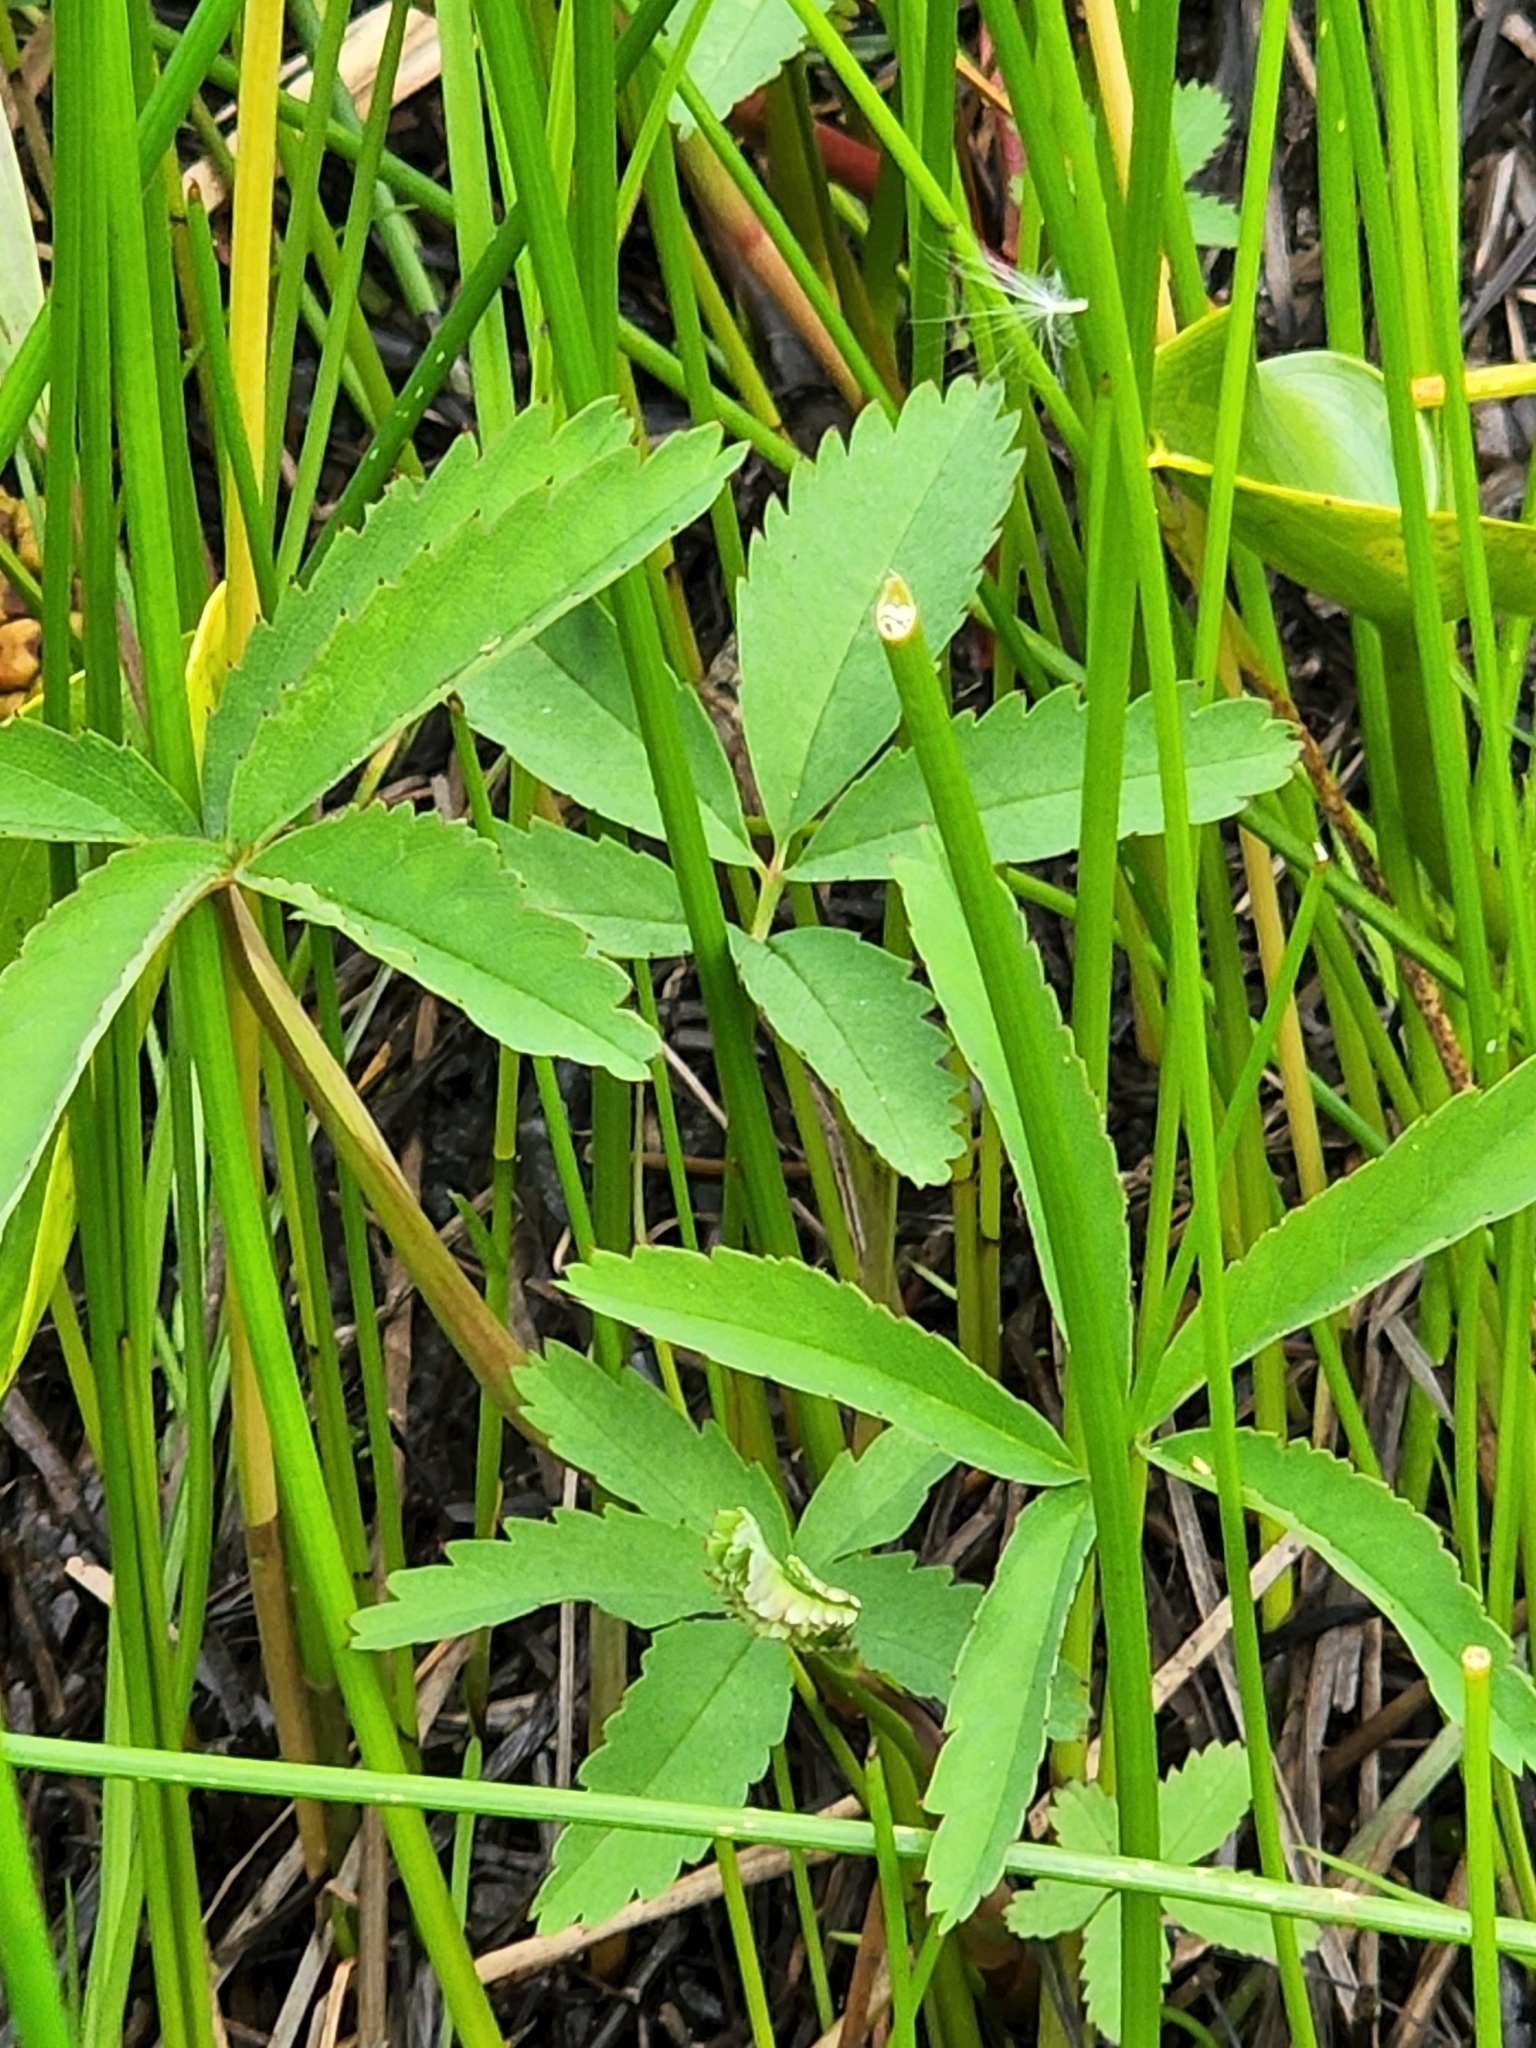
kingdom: Plantae
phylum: Tracheophyta
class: Magnoliopsida
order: Rosales
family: Rosaceae
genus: Comarum
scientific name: Comarum palustre
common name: Marsh cinquefoil
